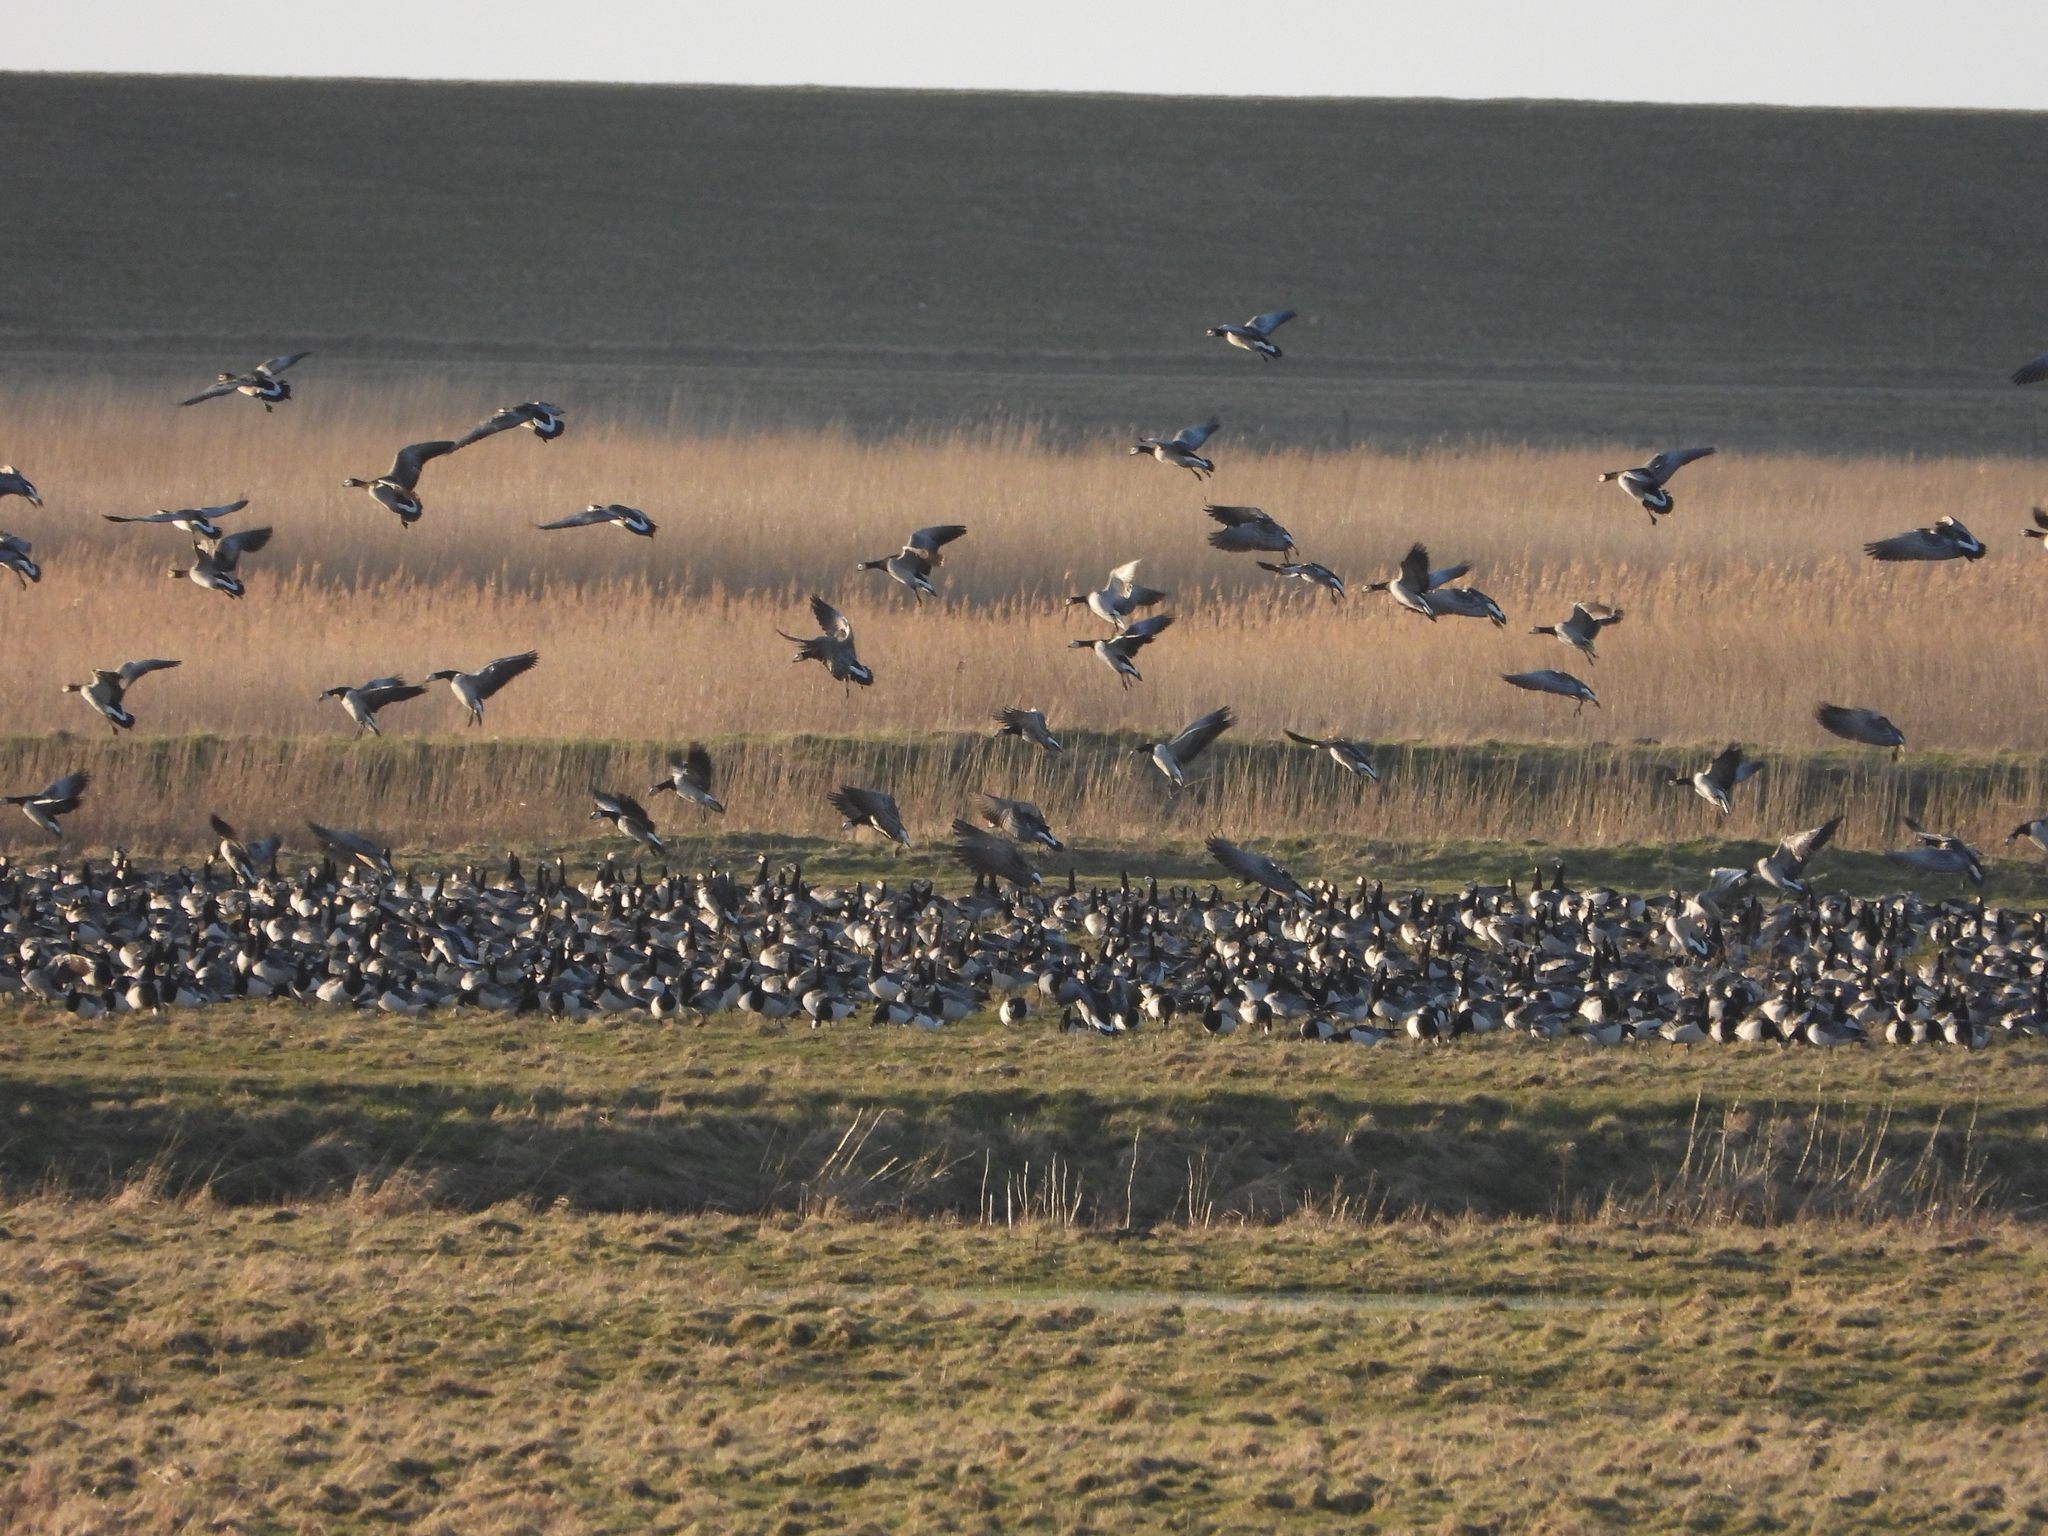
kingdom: Animalia
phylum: Chordata
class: Aves
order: Anseriformes
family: Anatidae
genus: Branta
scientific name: Branta leucopsis
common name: Barnacle goose
